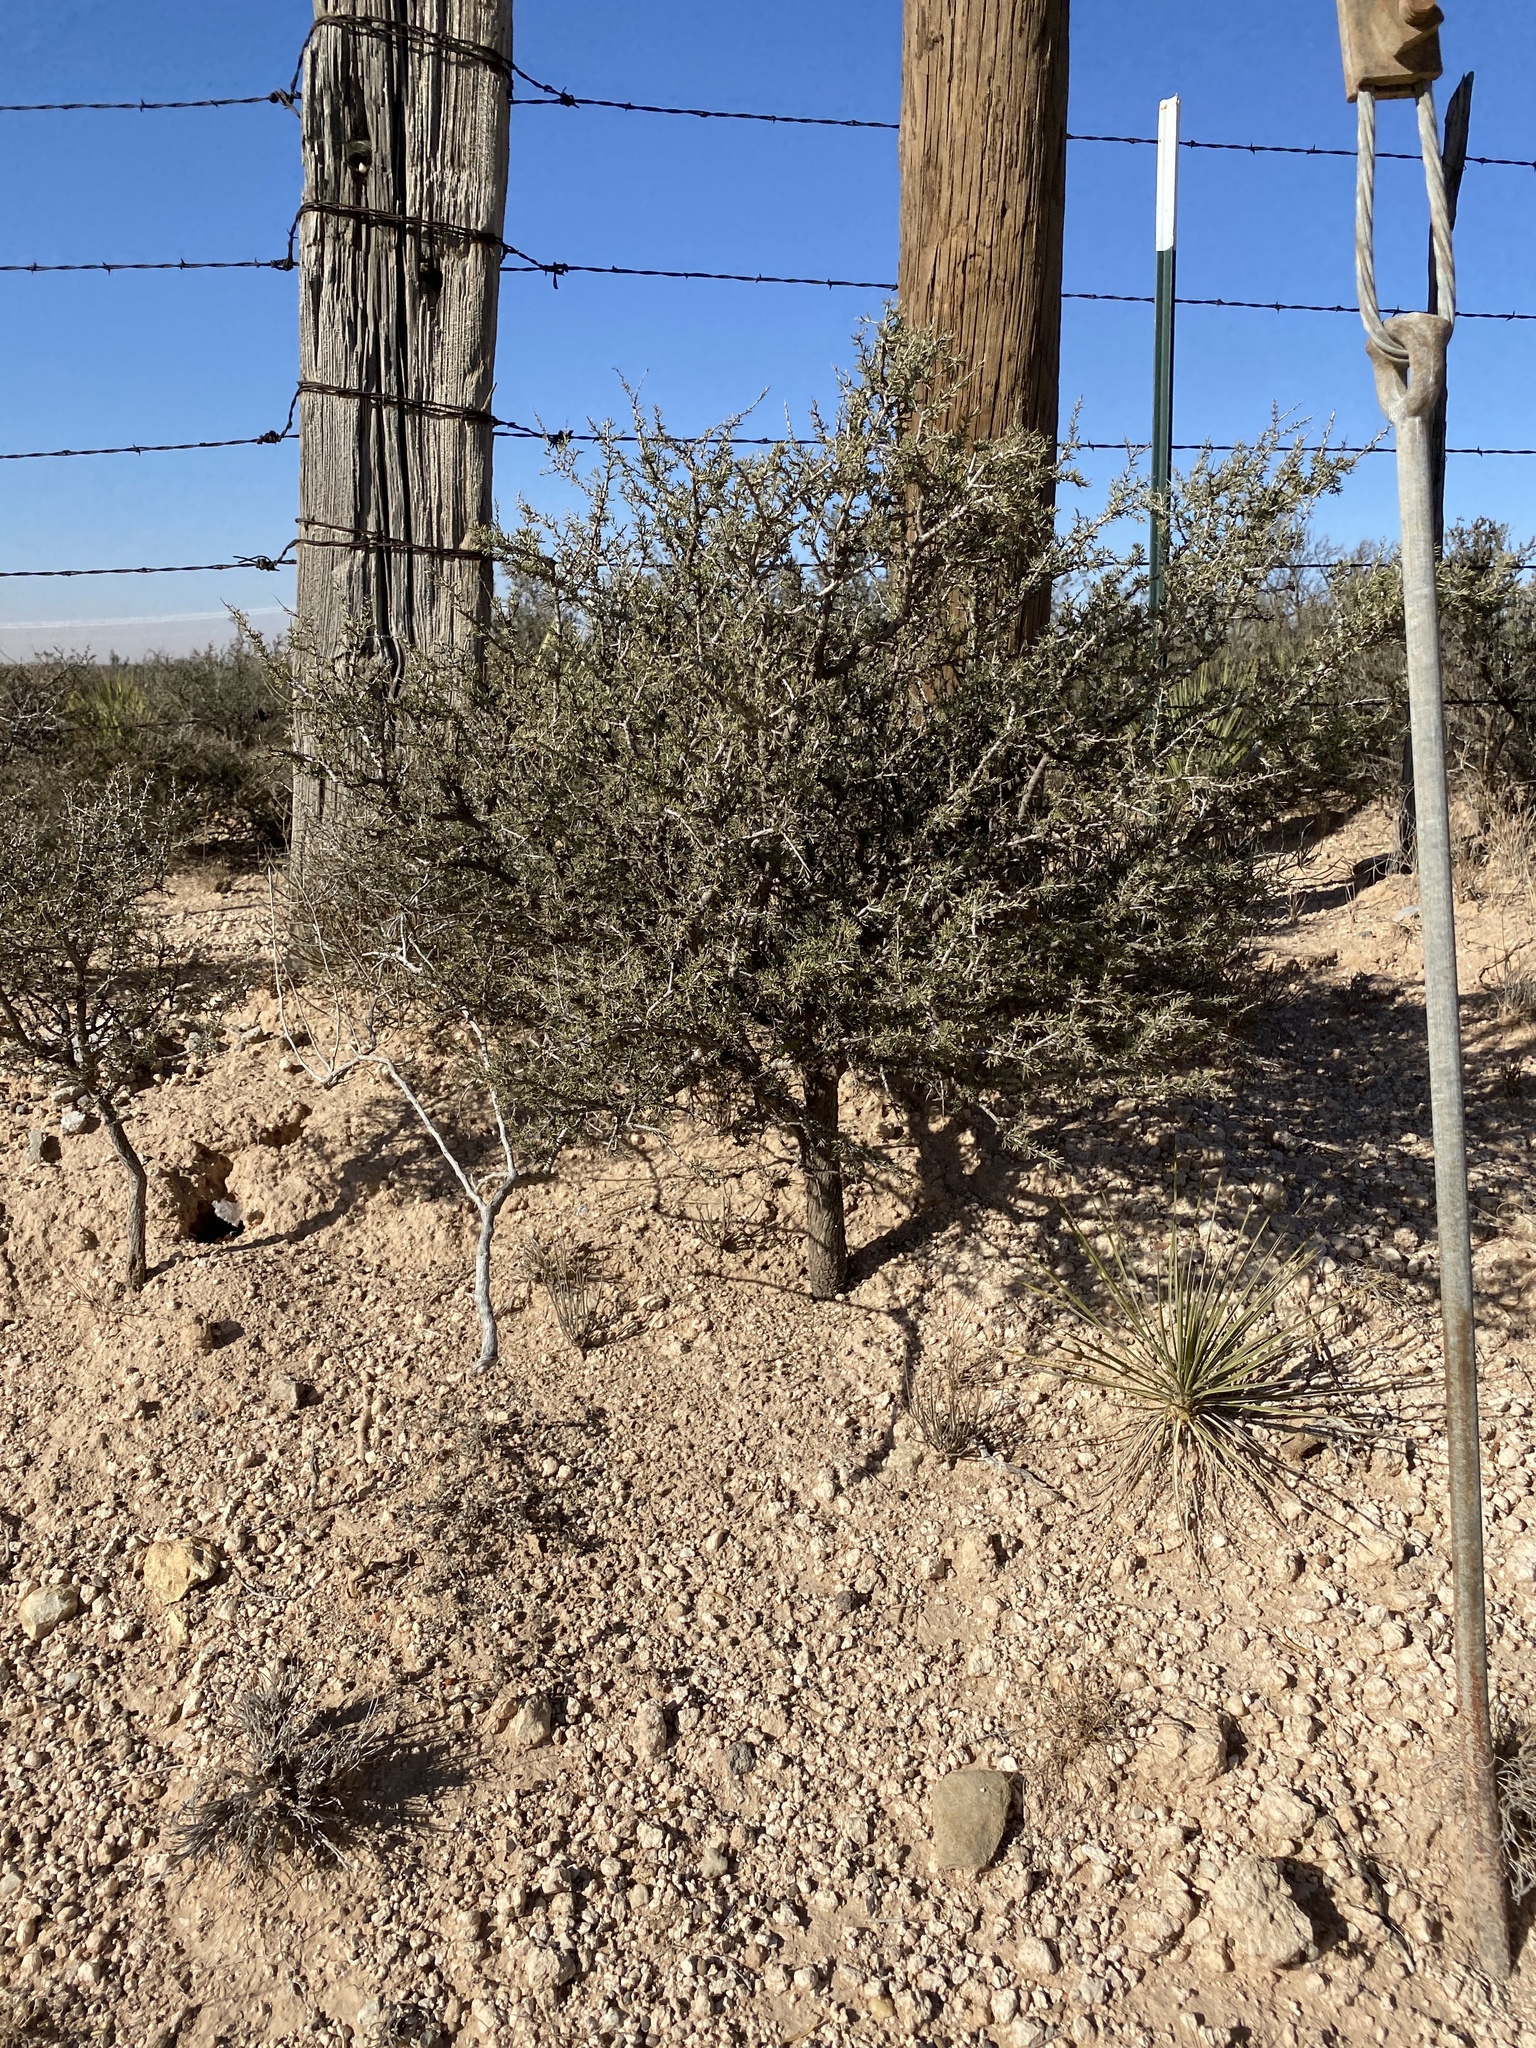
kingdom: Plantae
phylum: Tracheophyta
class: Magnoliopsida
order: Rosales
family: Rhamnaceae
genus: Condalia
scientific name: Condalia ericoides
